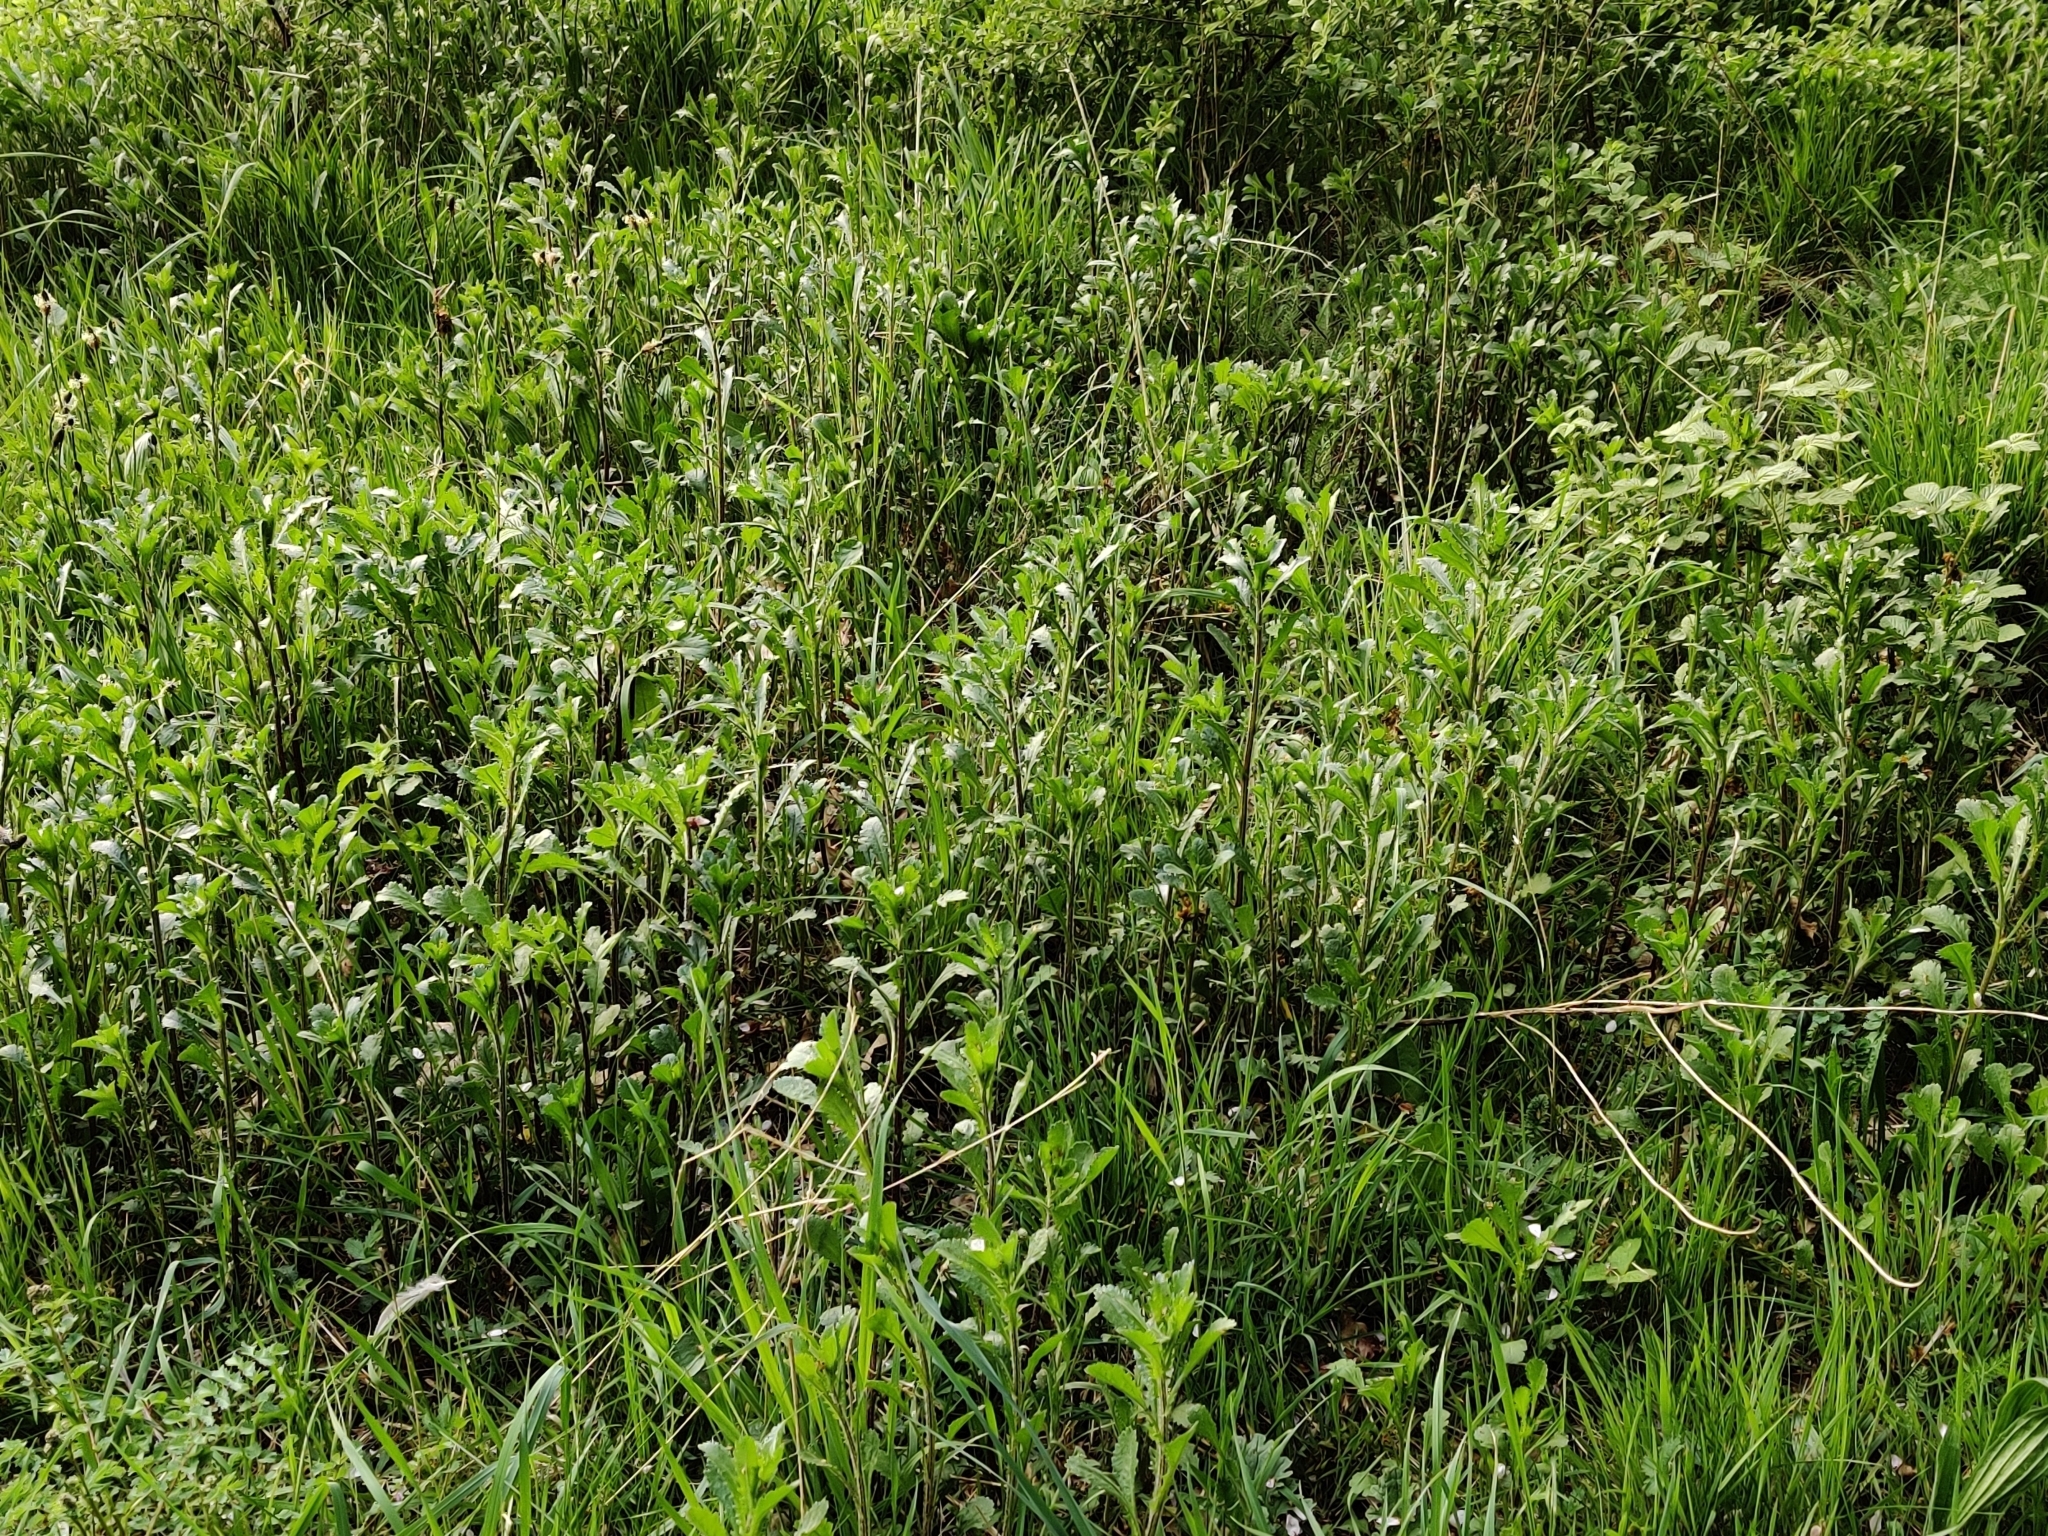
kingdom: Plantae
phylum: Tracheophyta
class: Magnoliopsida
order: Asterales
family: Asteraceae
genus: Leucanthemum
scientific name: Leucanthemum vulgare
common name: Oxeye daisy
